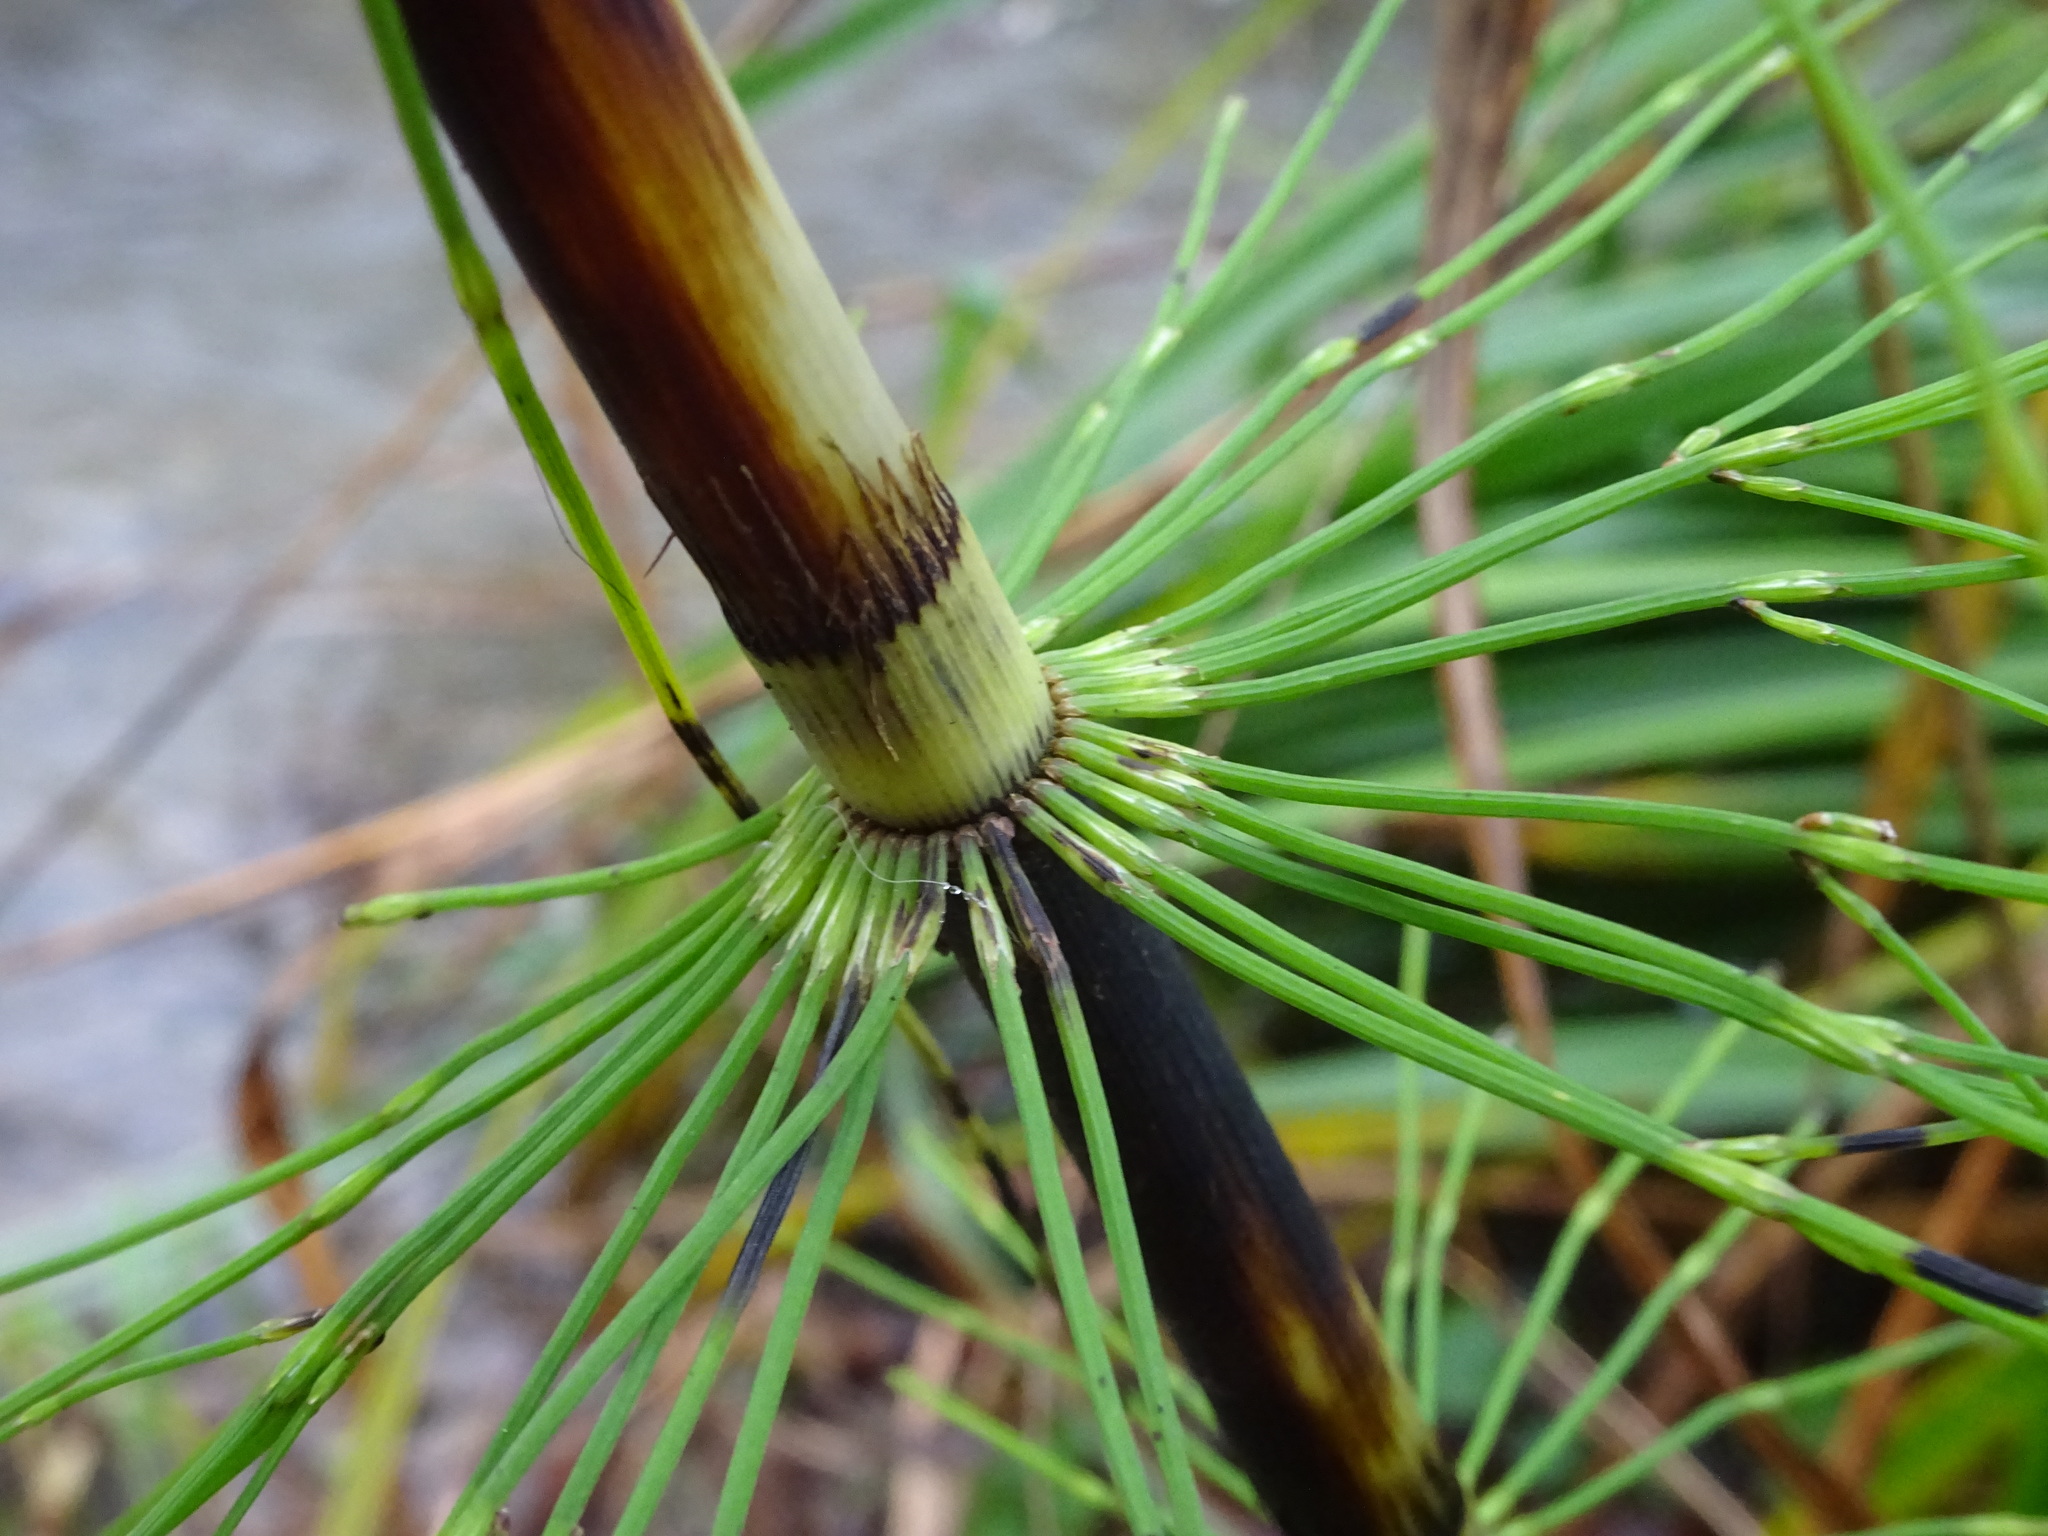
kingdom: Plantae
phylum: Tracheophyta
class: Polypodiopsida
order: Equisetales
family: Equisetaceae
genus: Equisetum
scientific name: Equisetum telmateia
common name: Great horsetail
